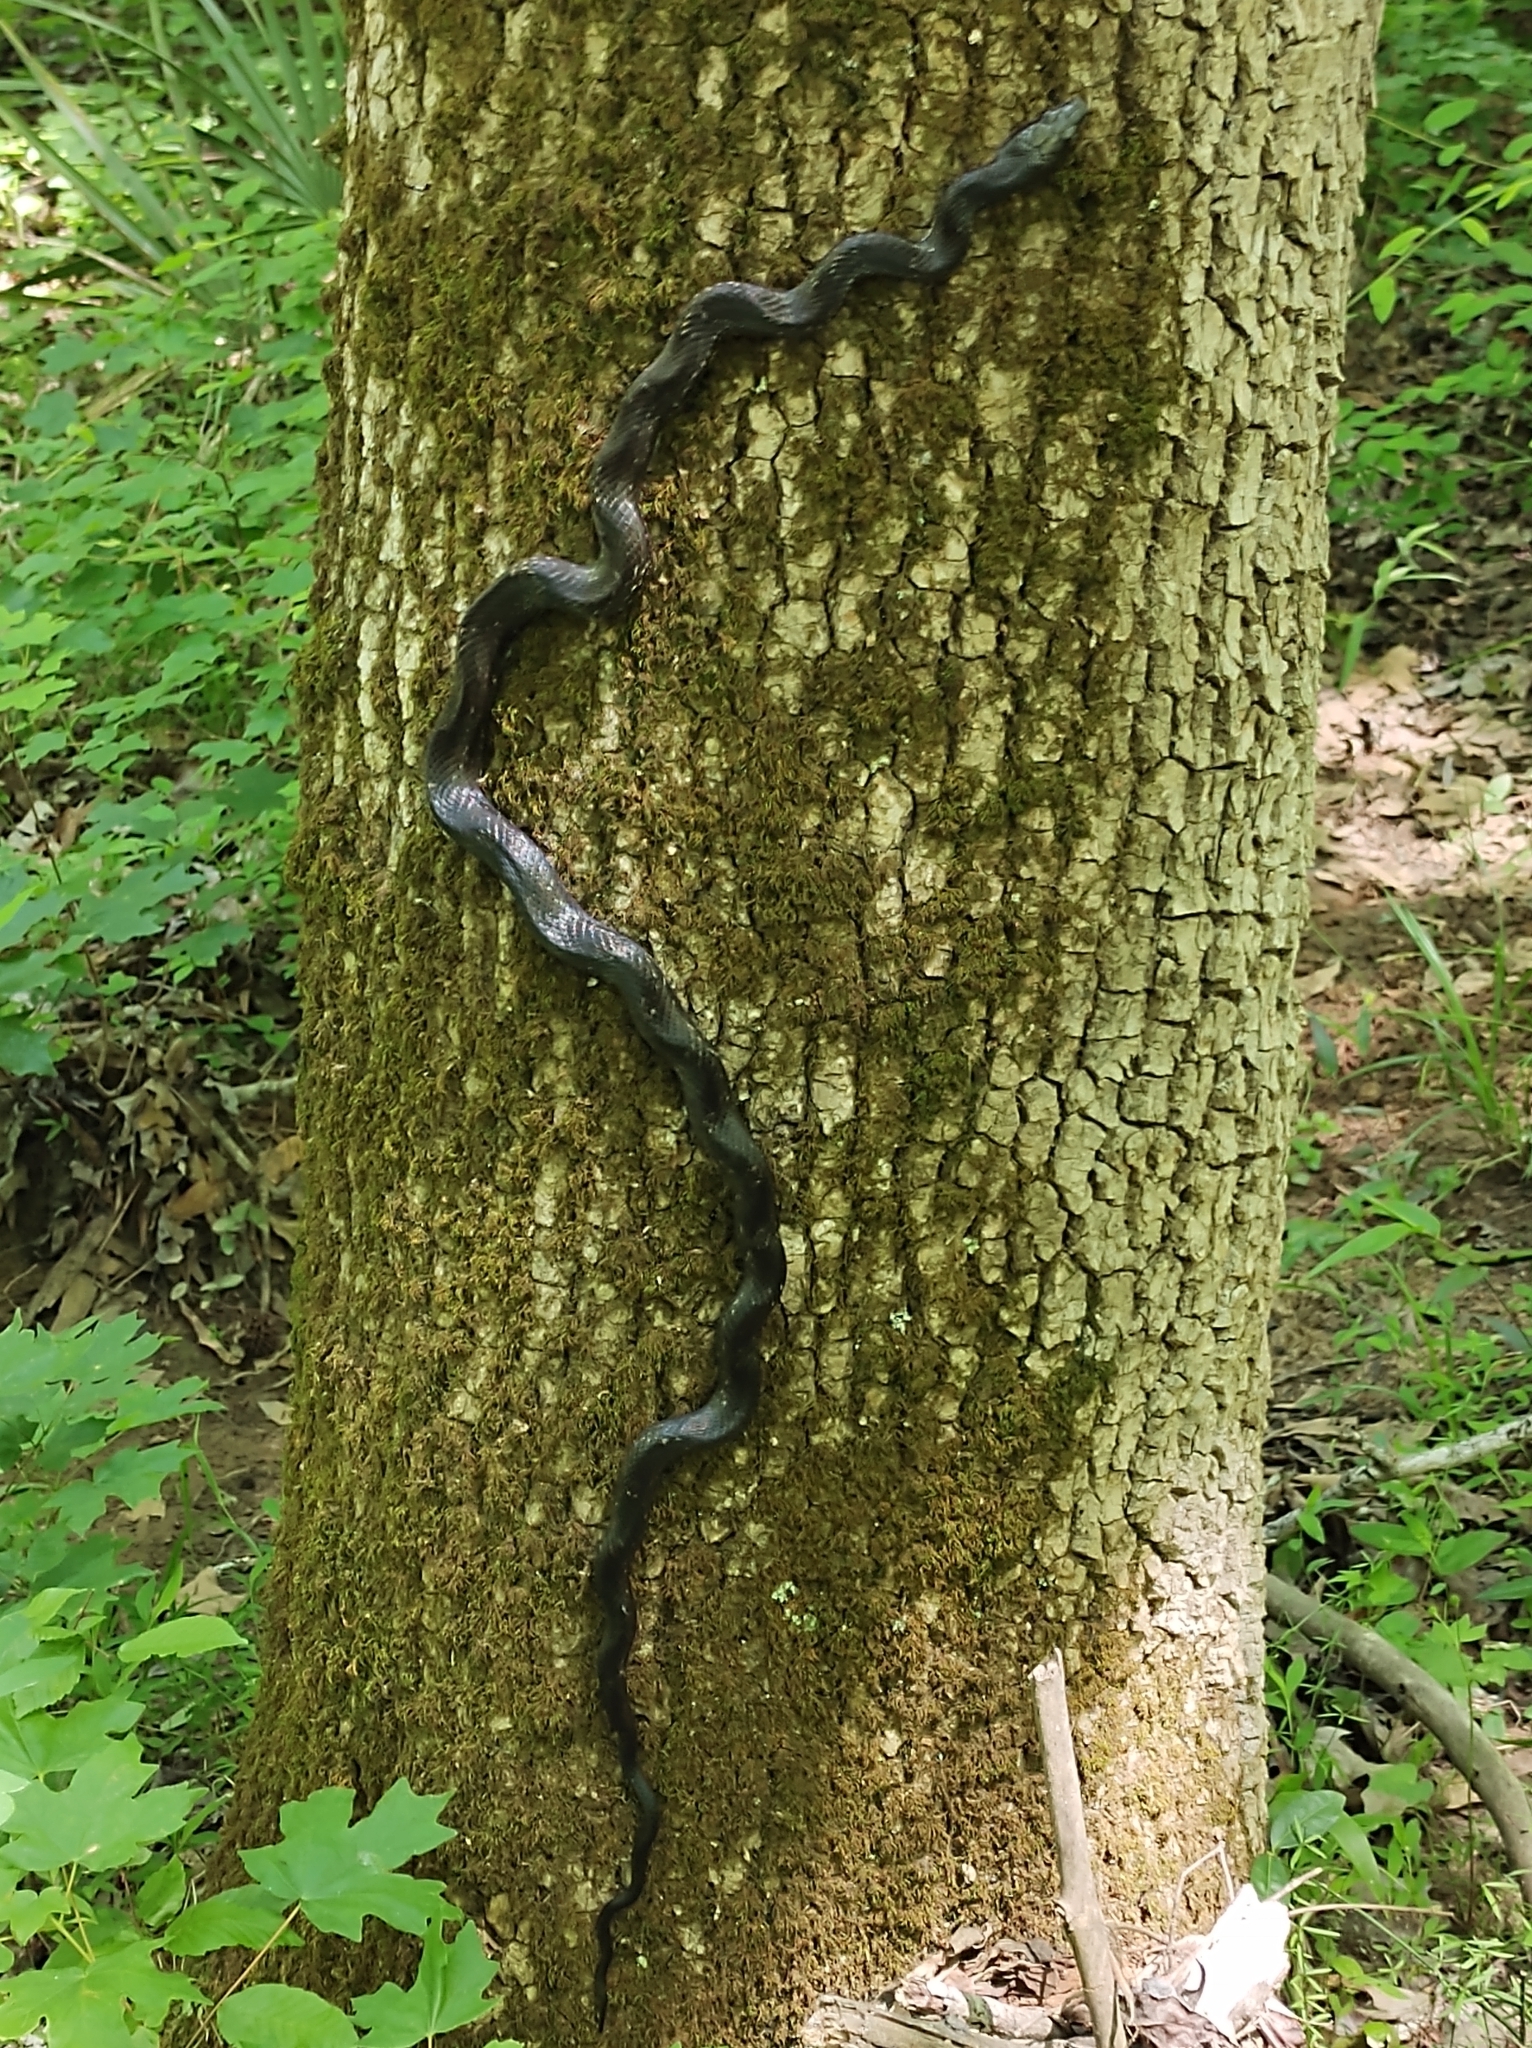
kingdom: Animalia
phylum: Chordata
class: Squamata
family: Colubridae
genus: Pantherophis
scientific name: Pantherophis alleghaniensis
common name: Eastern rat snake
